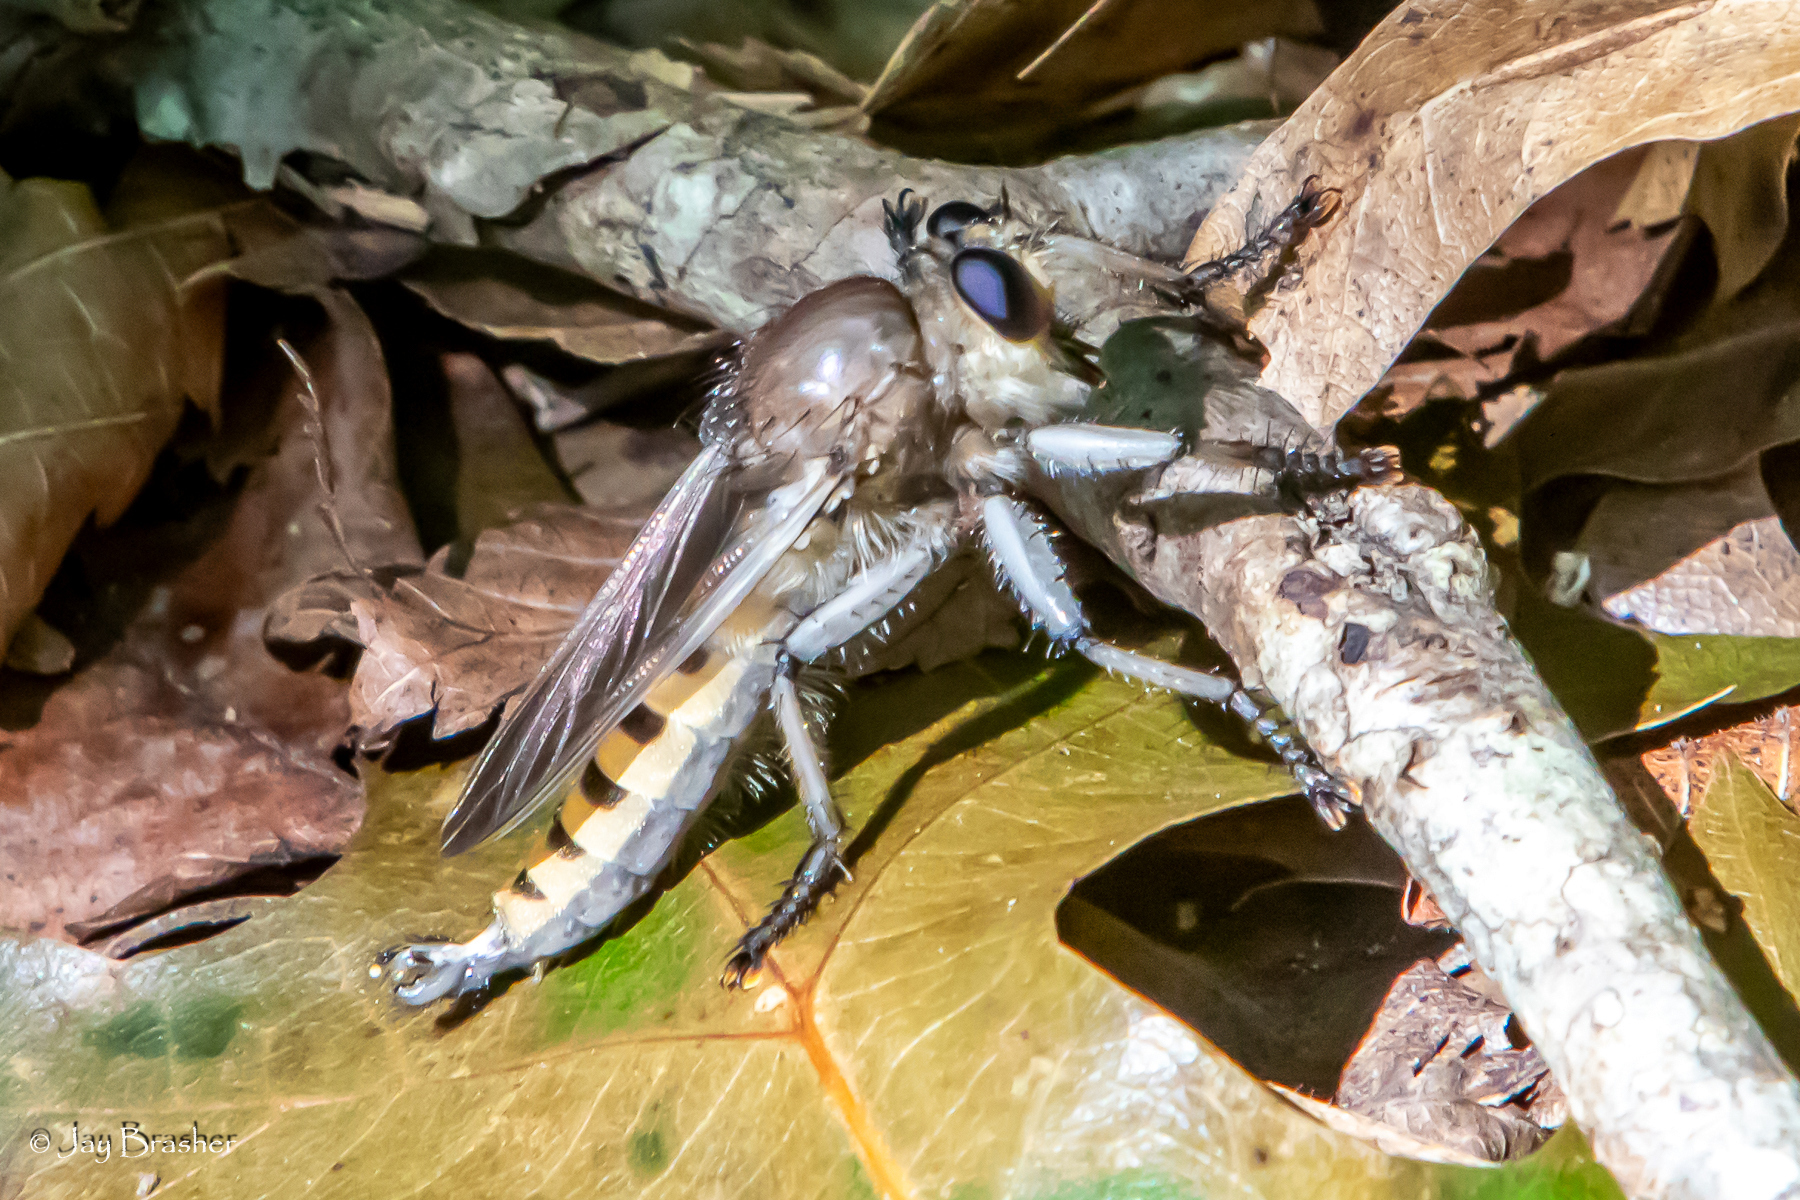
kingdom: Animalia
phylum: Arthropoda
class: Insecta
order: Diptera
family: Asilidae
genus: Promachus
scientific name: Promachus hinei
